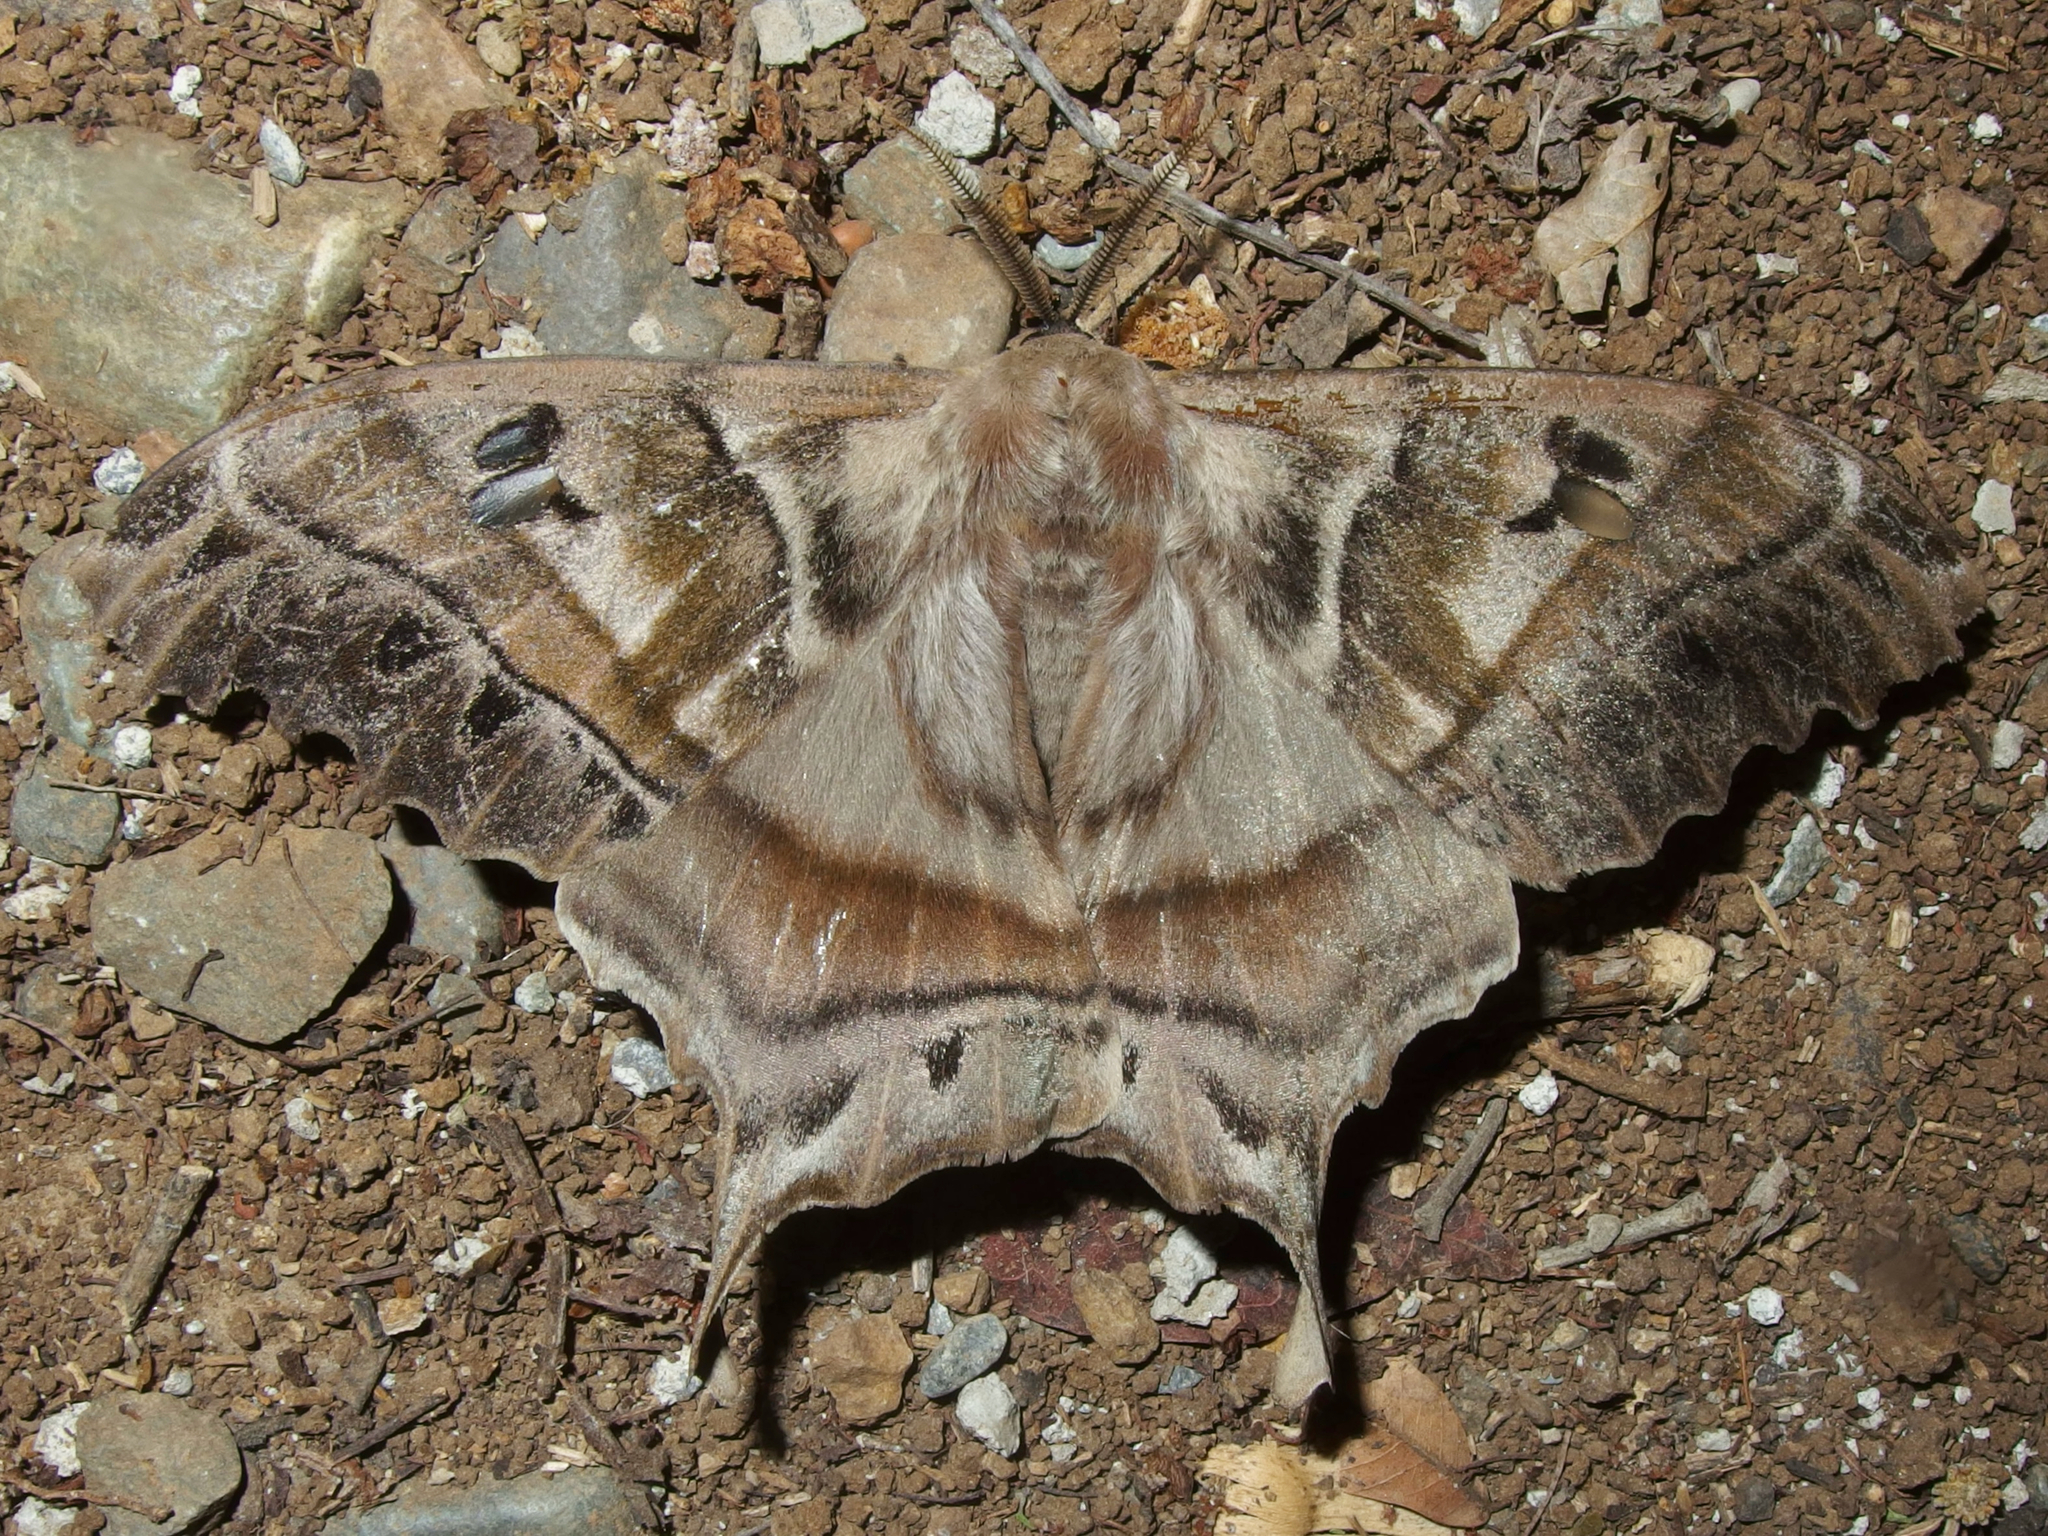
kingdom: Animalia
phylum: Arthropoda
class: Insecta
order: Lepidoptera
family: Saturniidae
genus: Titaea
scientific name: Titaea tamerlan
